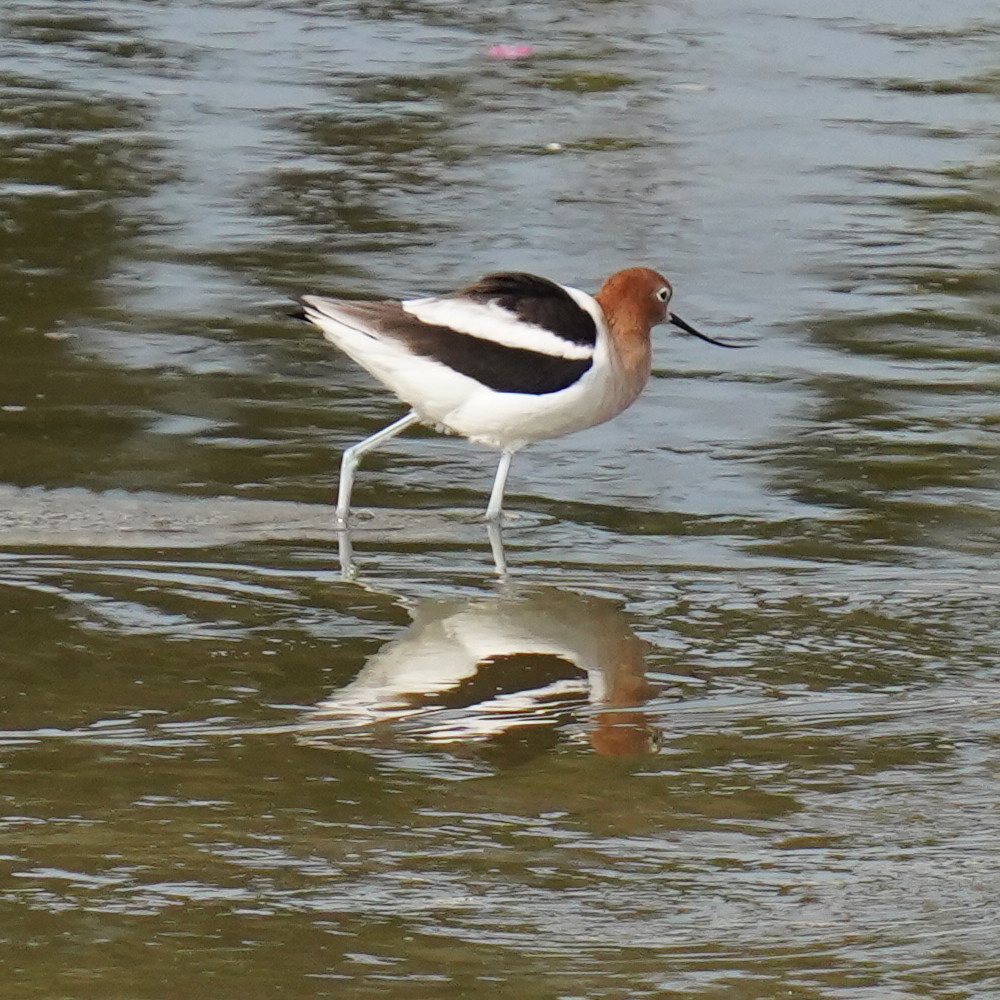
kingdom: Animalia
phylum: Chordata
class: Aves
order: Charadriiformes
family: Recurvirostridae
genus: Recurvirostra
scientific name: Recurvirostra americana
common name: American avocet
